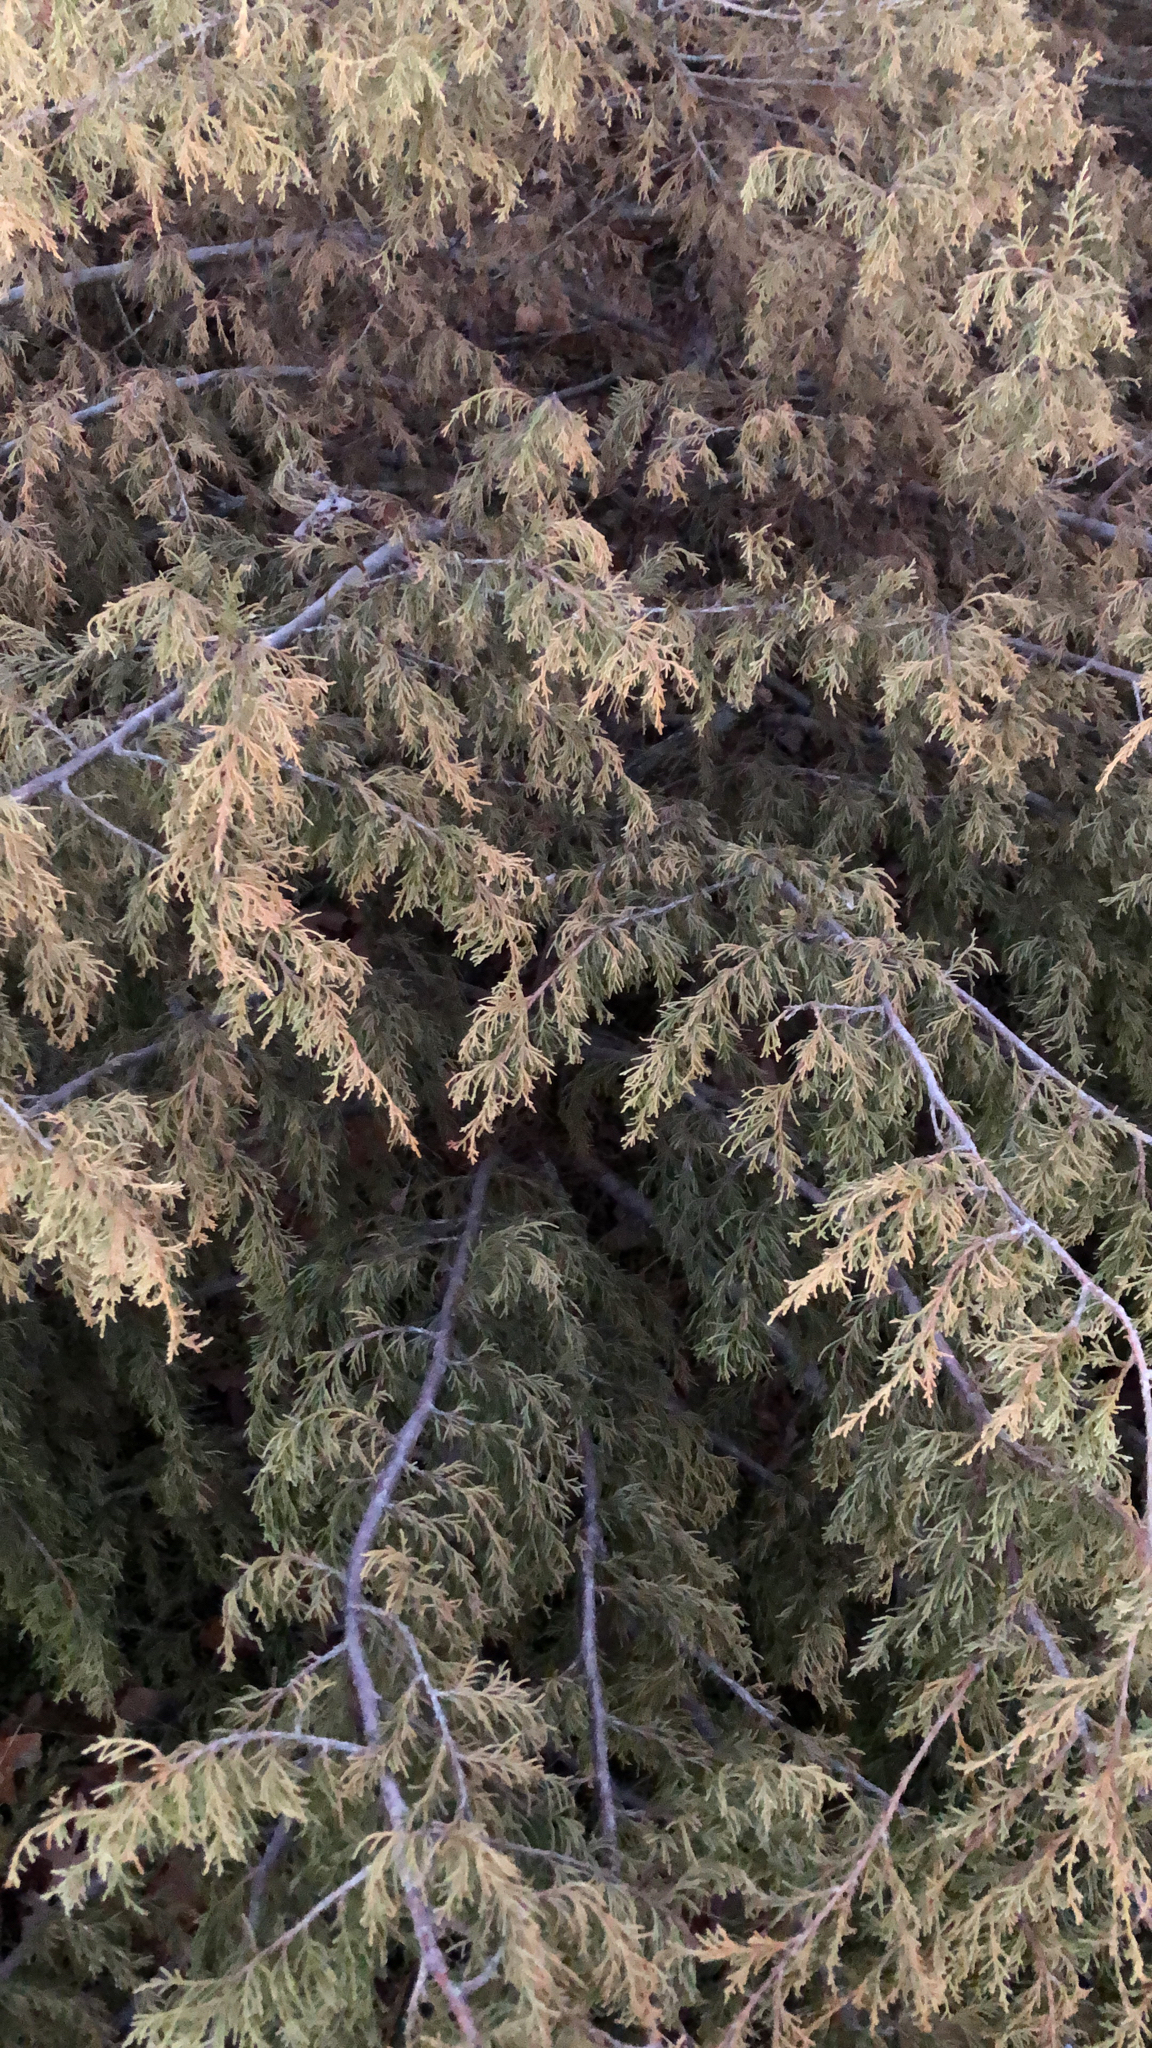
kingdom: Plantae
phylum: Tracheophyta
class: Pinopsida
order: Pinales
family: Cupressaceae
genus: Juniperus
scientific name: Juniperus virginiana
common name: Red juniper
